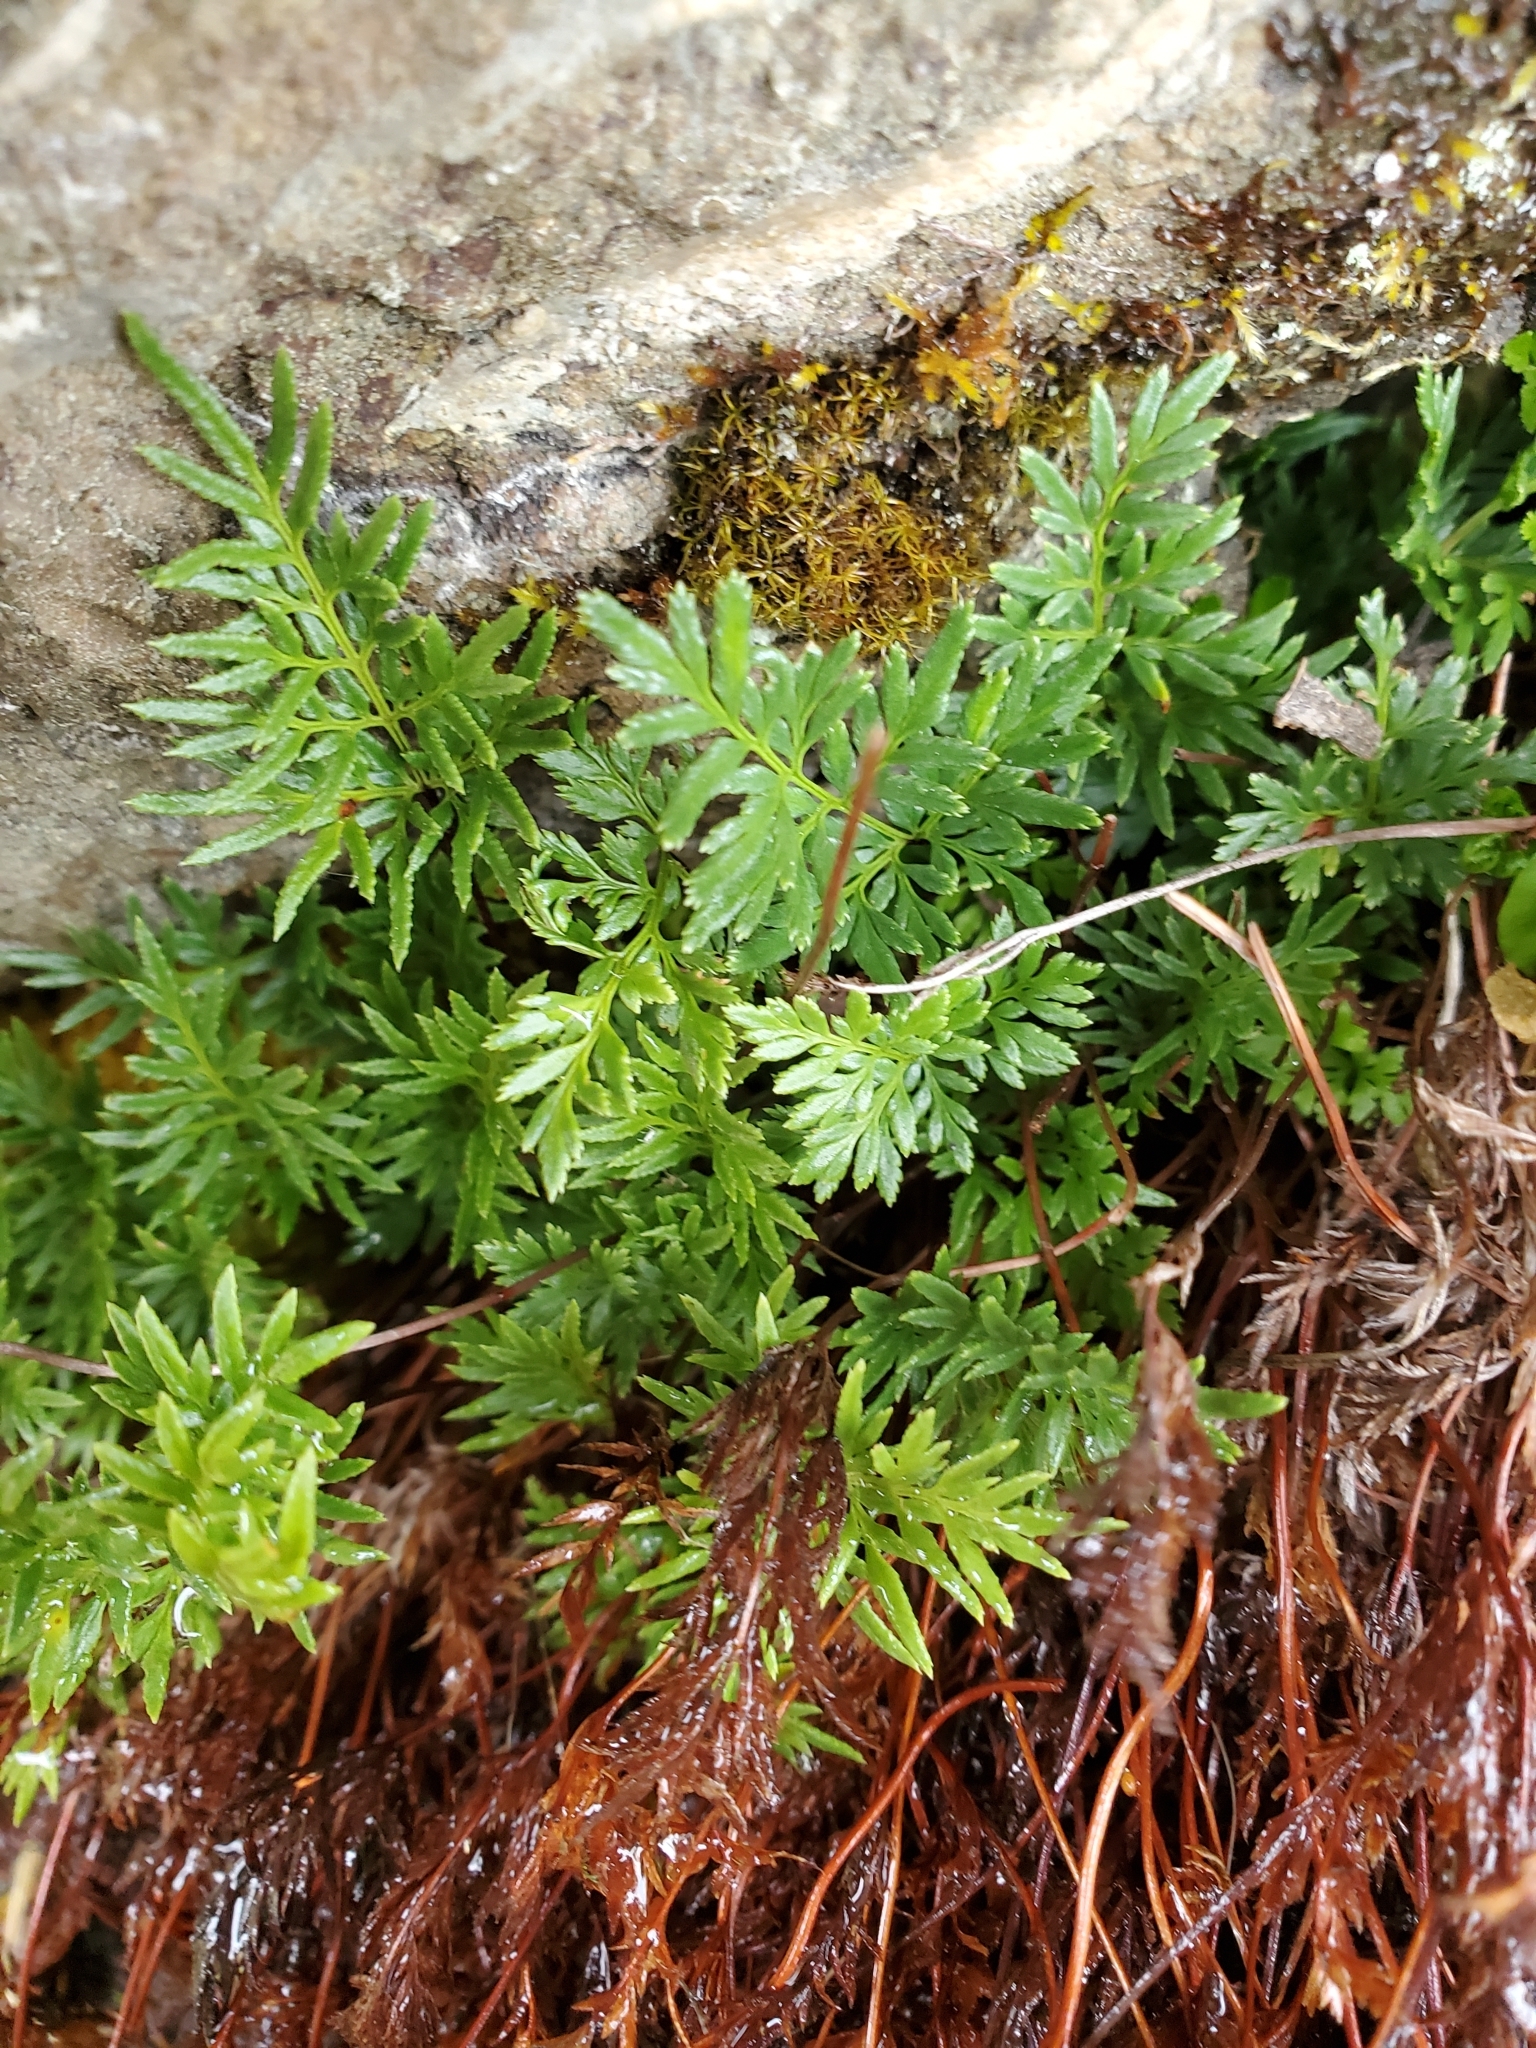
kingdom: Plantae
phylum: Tracheophyta
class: Polypodiopsida
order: Polypodiales
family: Pteridaceae
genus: Aspidotis
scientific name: Aspidotis densa
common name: Indian's dream
